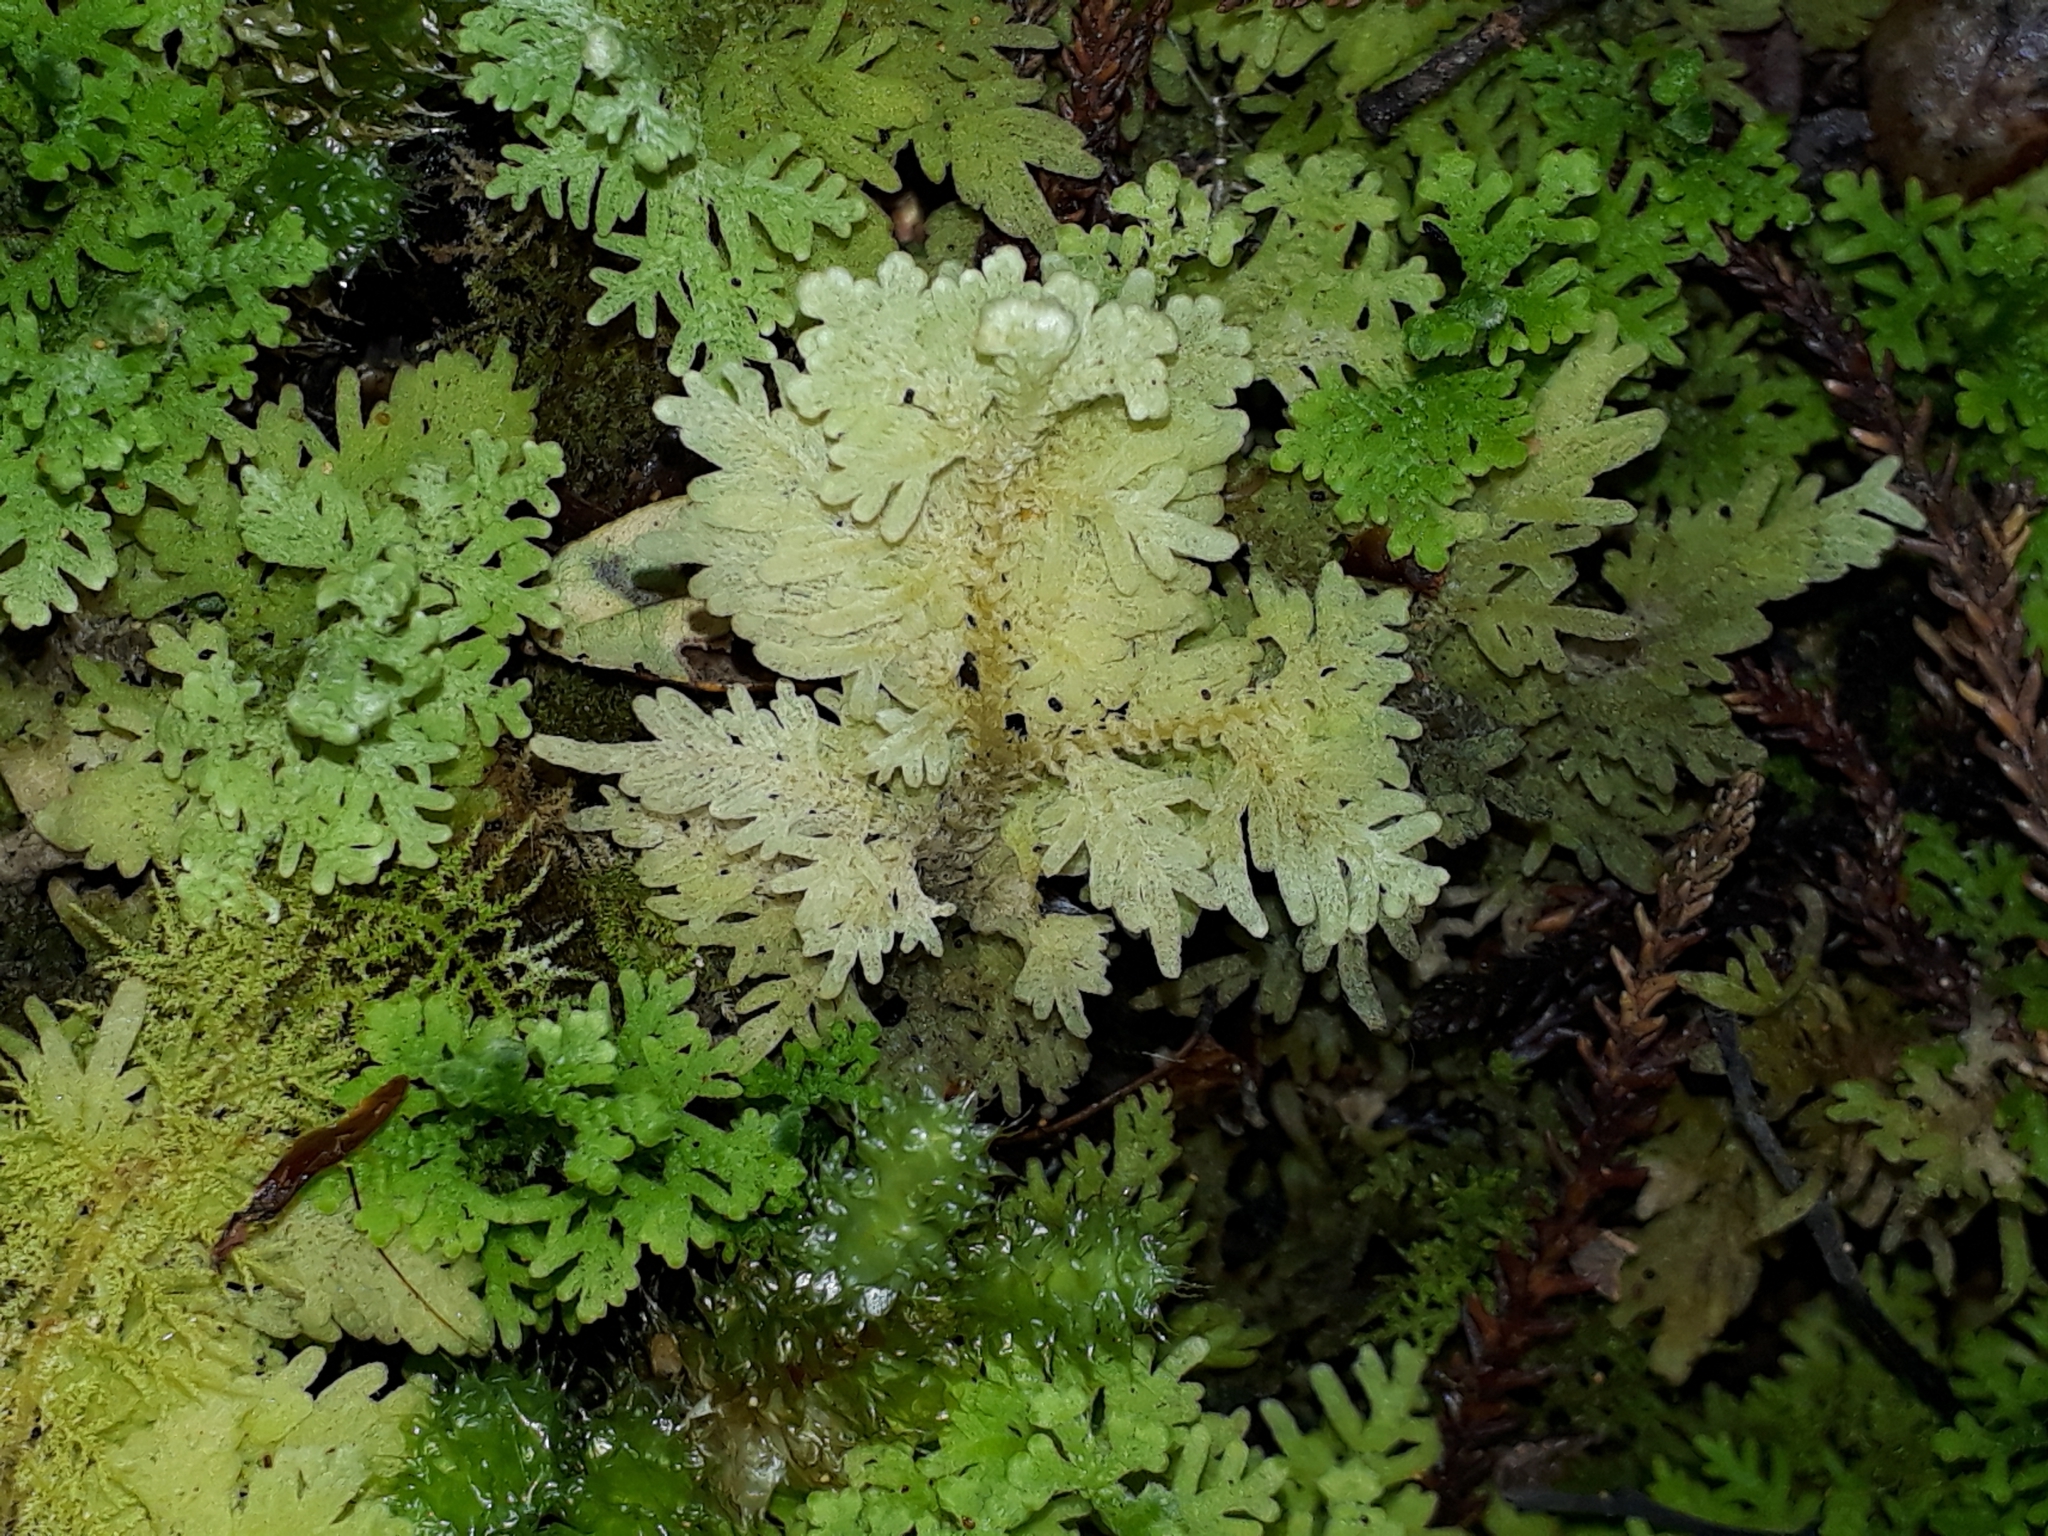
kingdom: Plantae
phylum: Marchantiophyta
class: Jungermanniopsida
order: Jungermanniales
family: Trichocoleaceae
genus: Trichocolea
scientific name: Trichocolea mollissima
